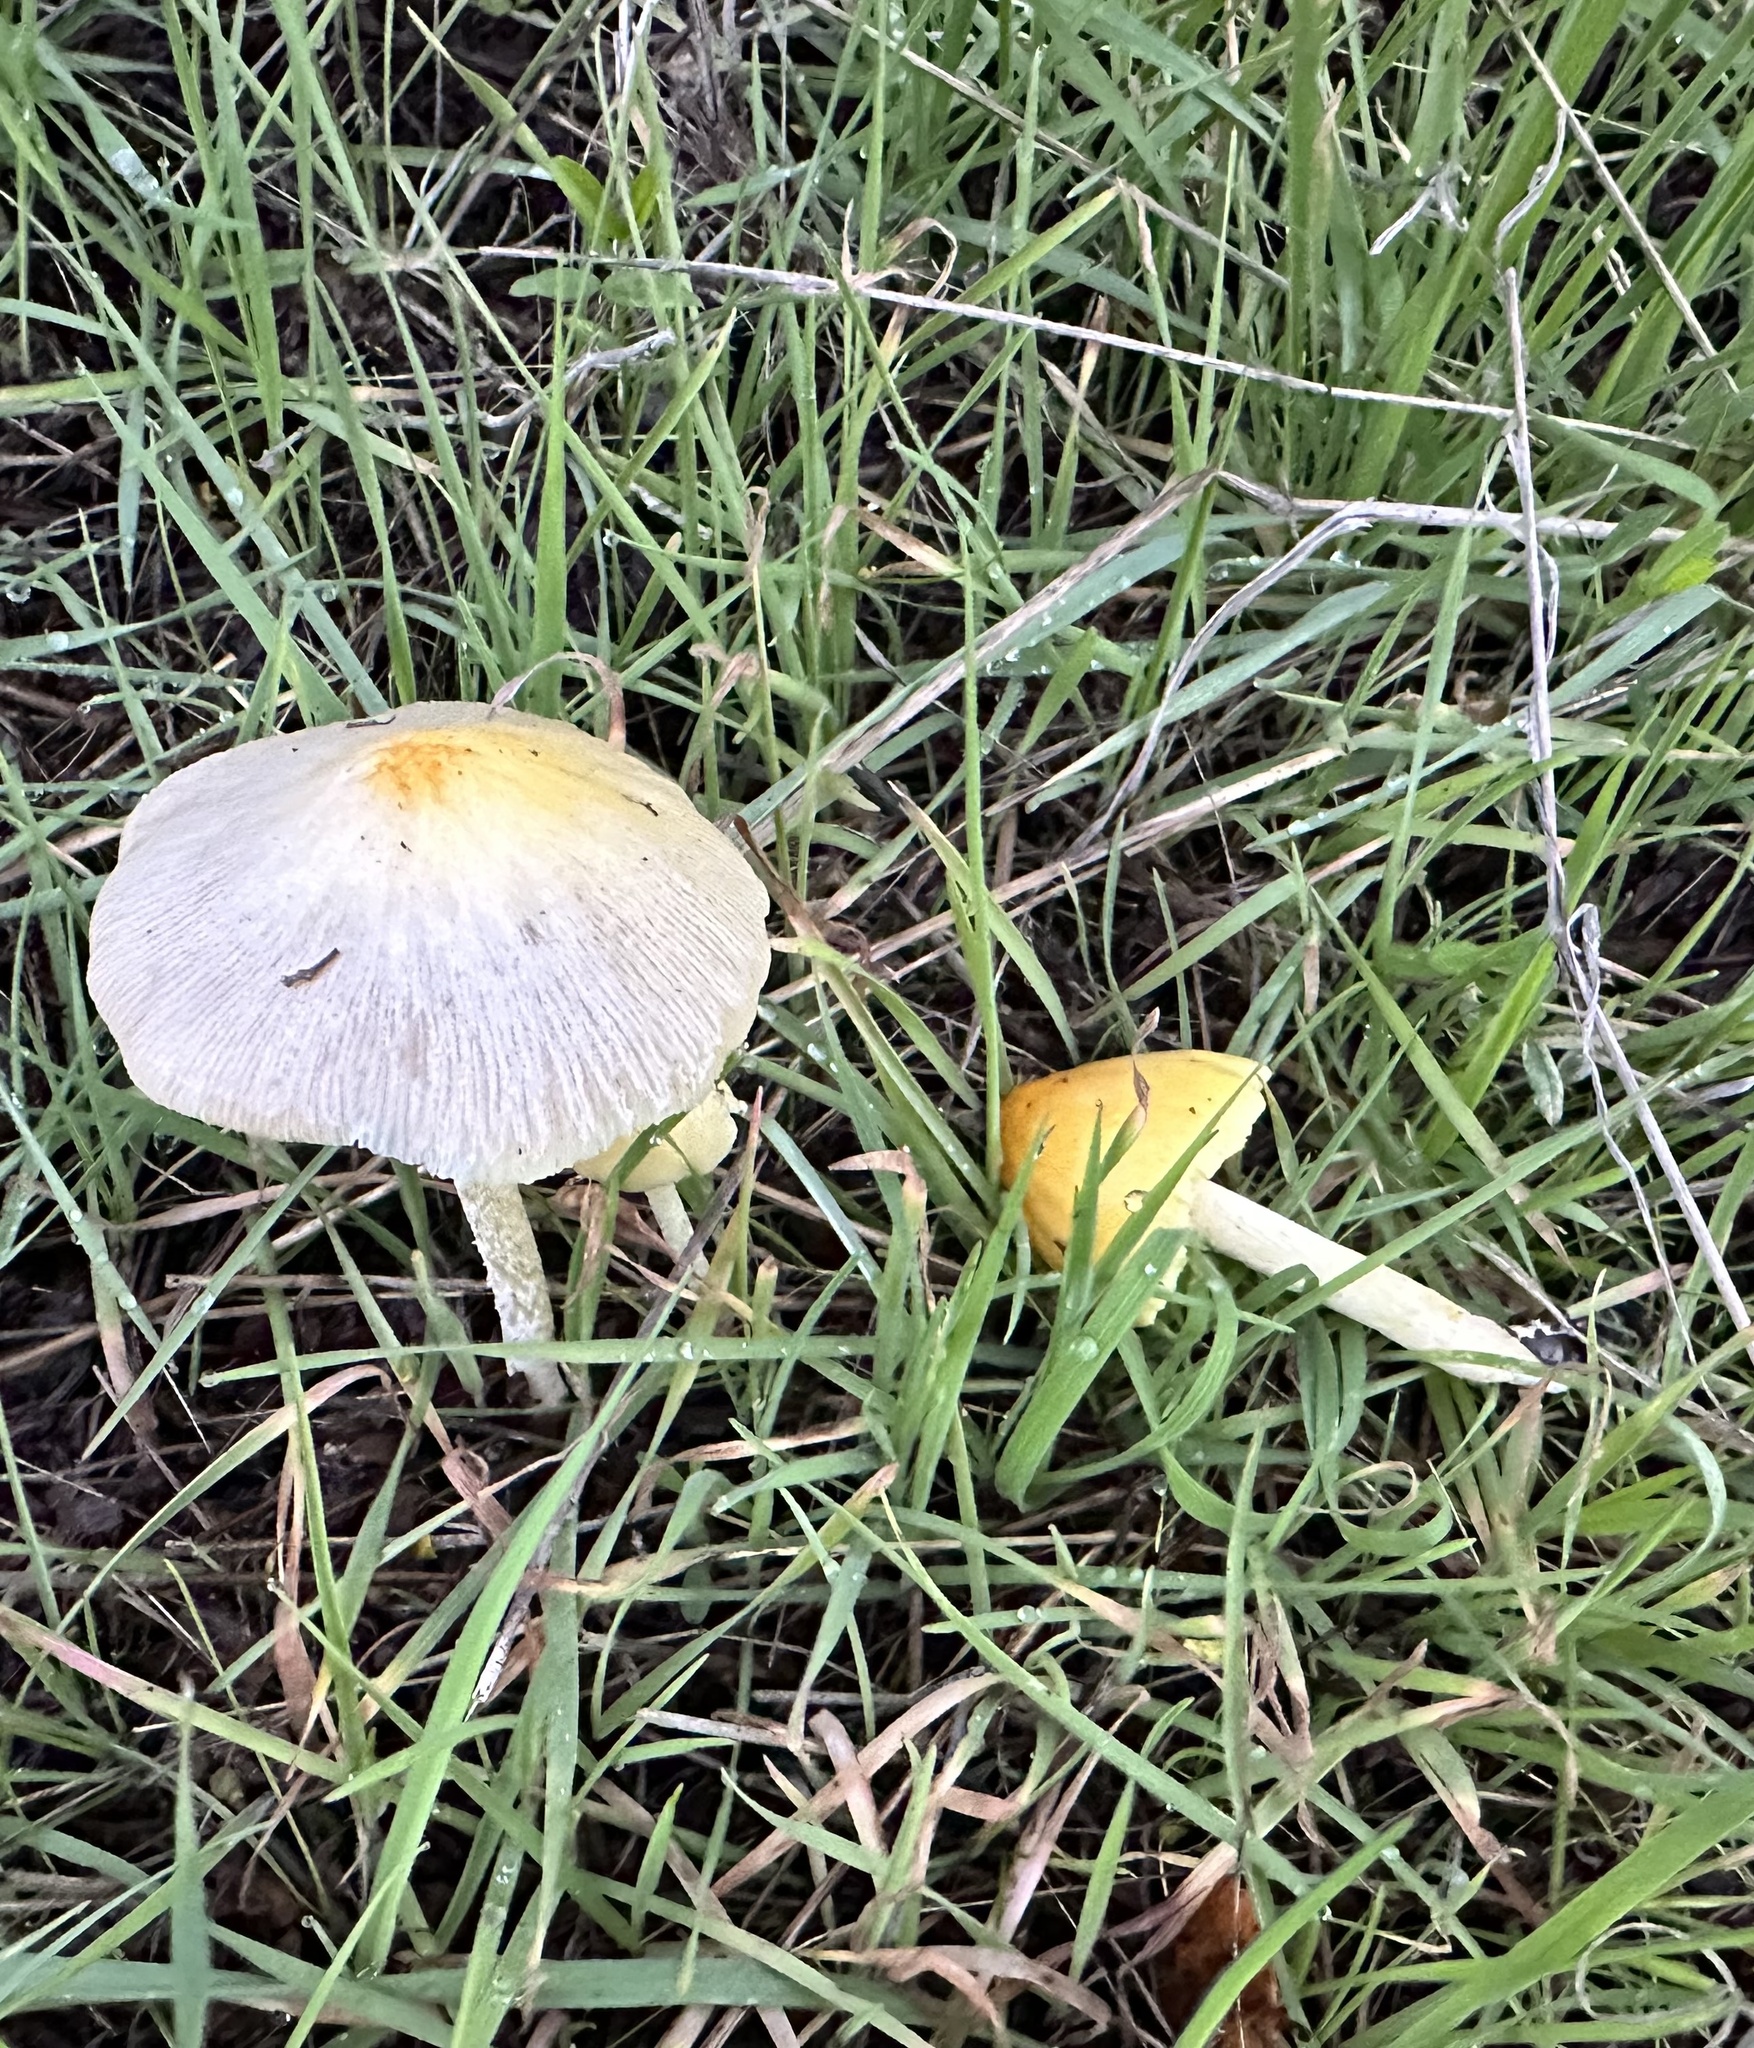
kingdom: Fungi
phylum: Basidiomycota
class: Agaricomycetes
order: Agaricales
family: Bolbitiaceae
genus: Bolbitius
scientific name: Bolbitius titubans
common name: Yellow fieldcap
